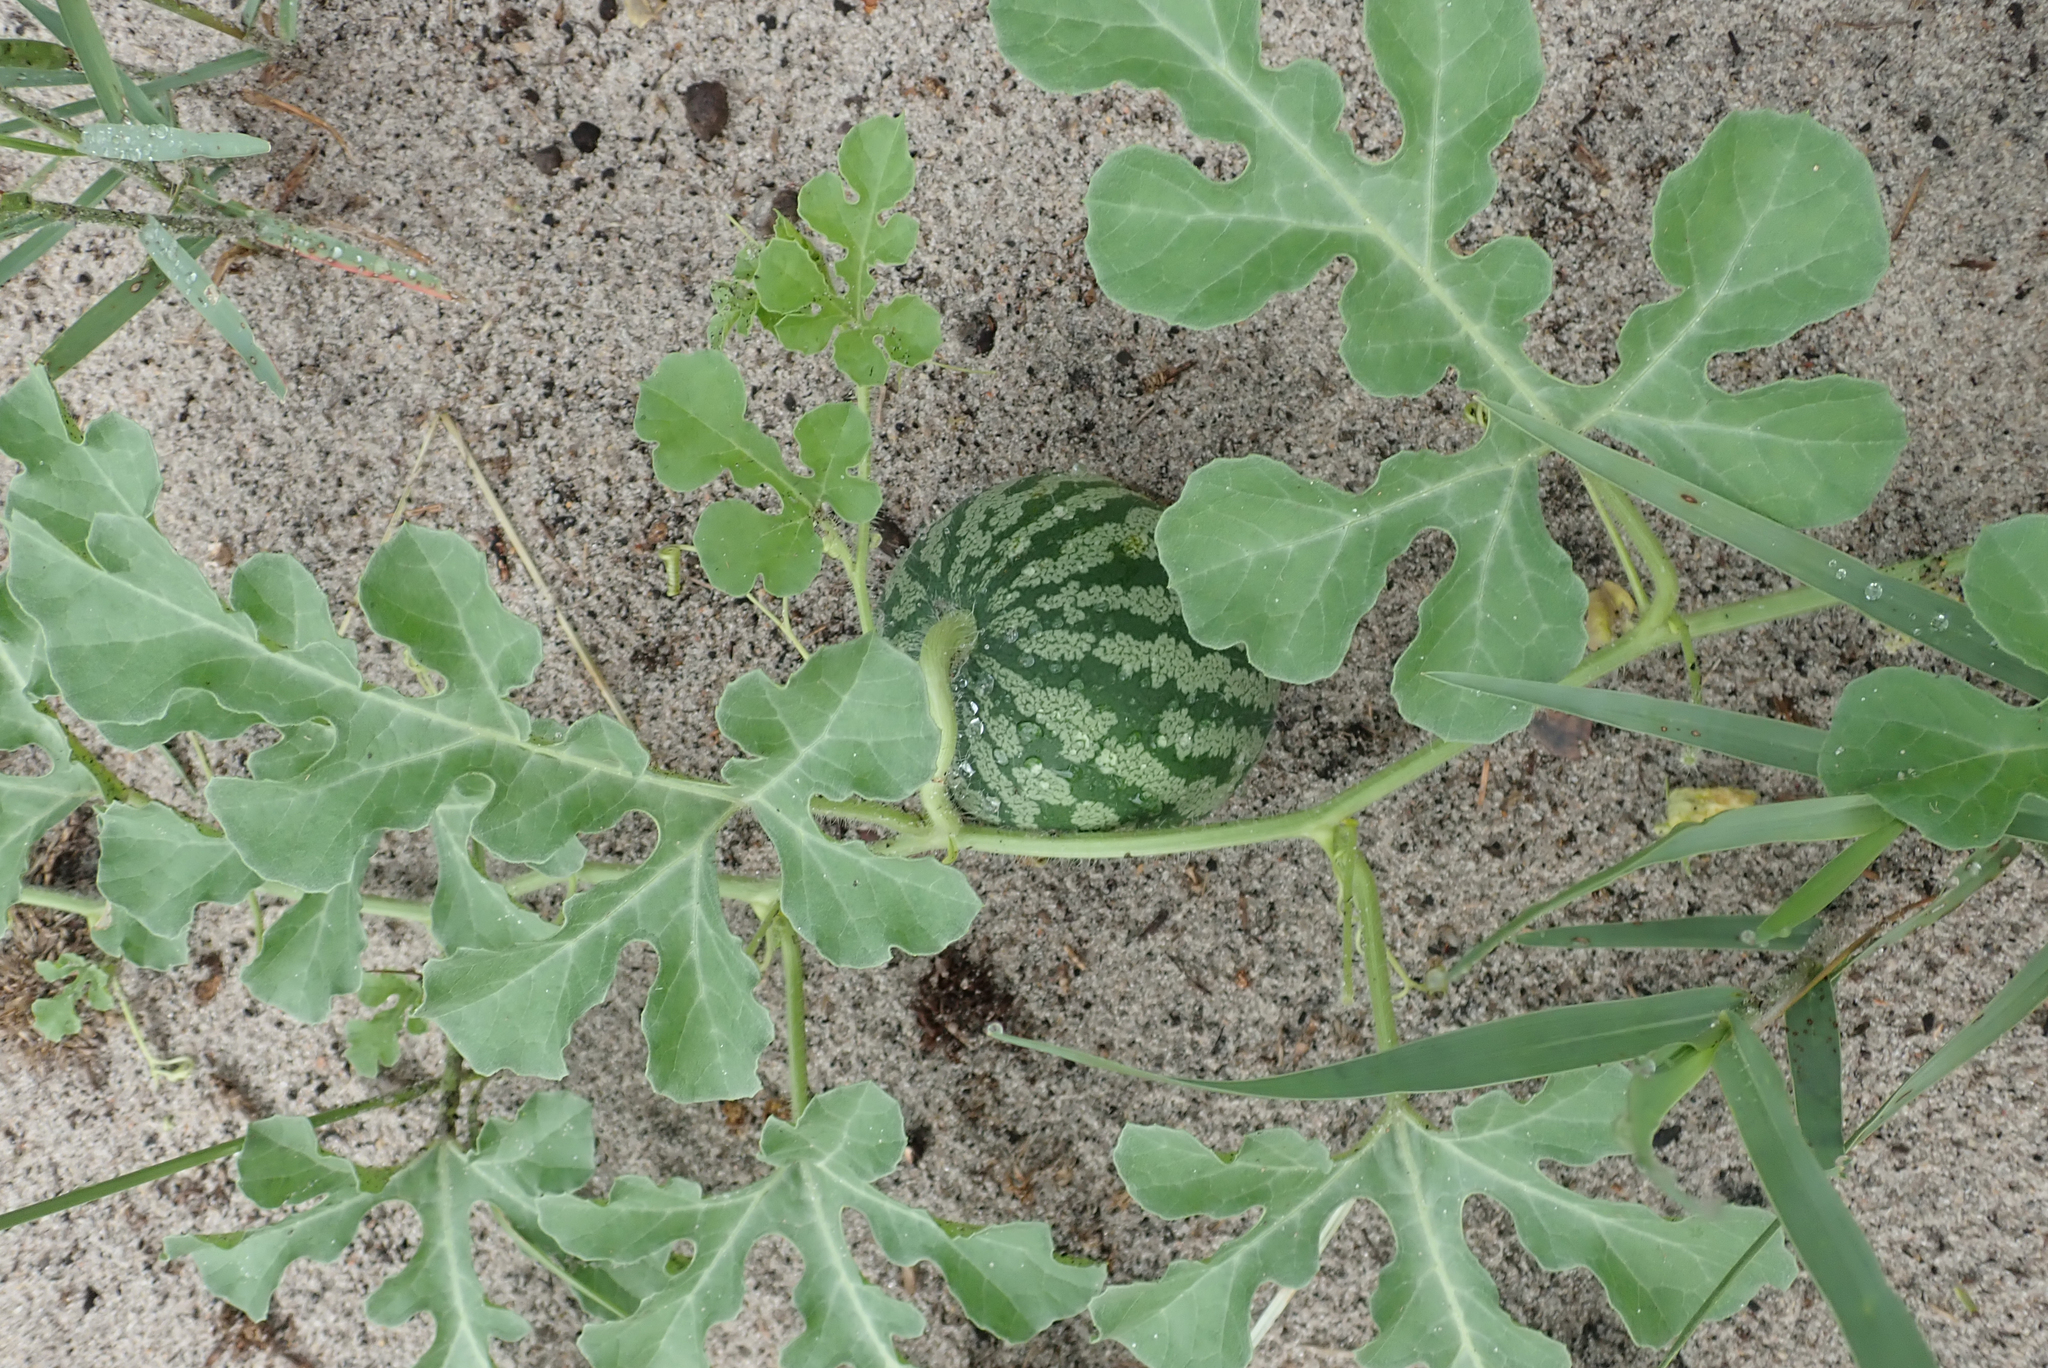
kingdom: Plantae
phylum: Tracheophyta
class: Magnoliopsida
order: Cucurbitales
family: Cucurbitaceae
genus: Citrullus
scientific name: Citrullus amarus
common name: Fodder-melon
